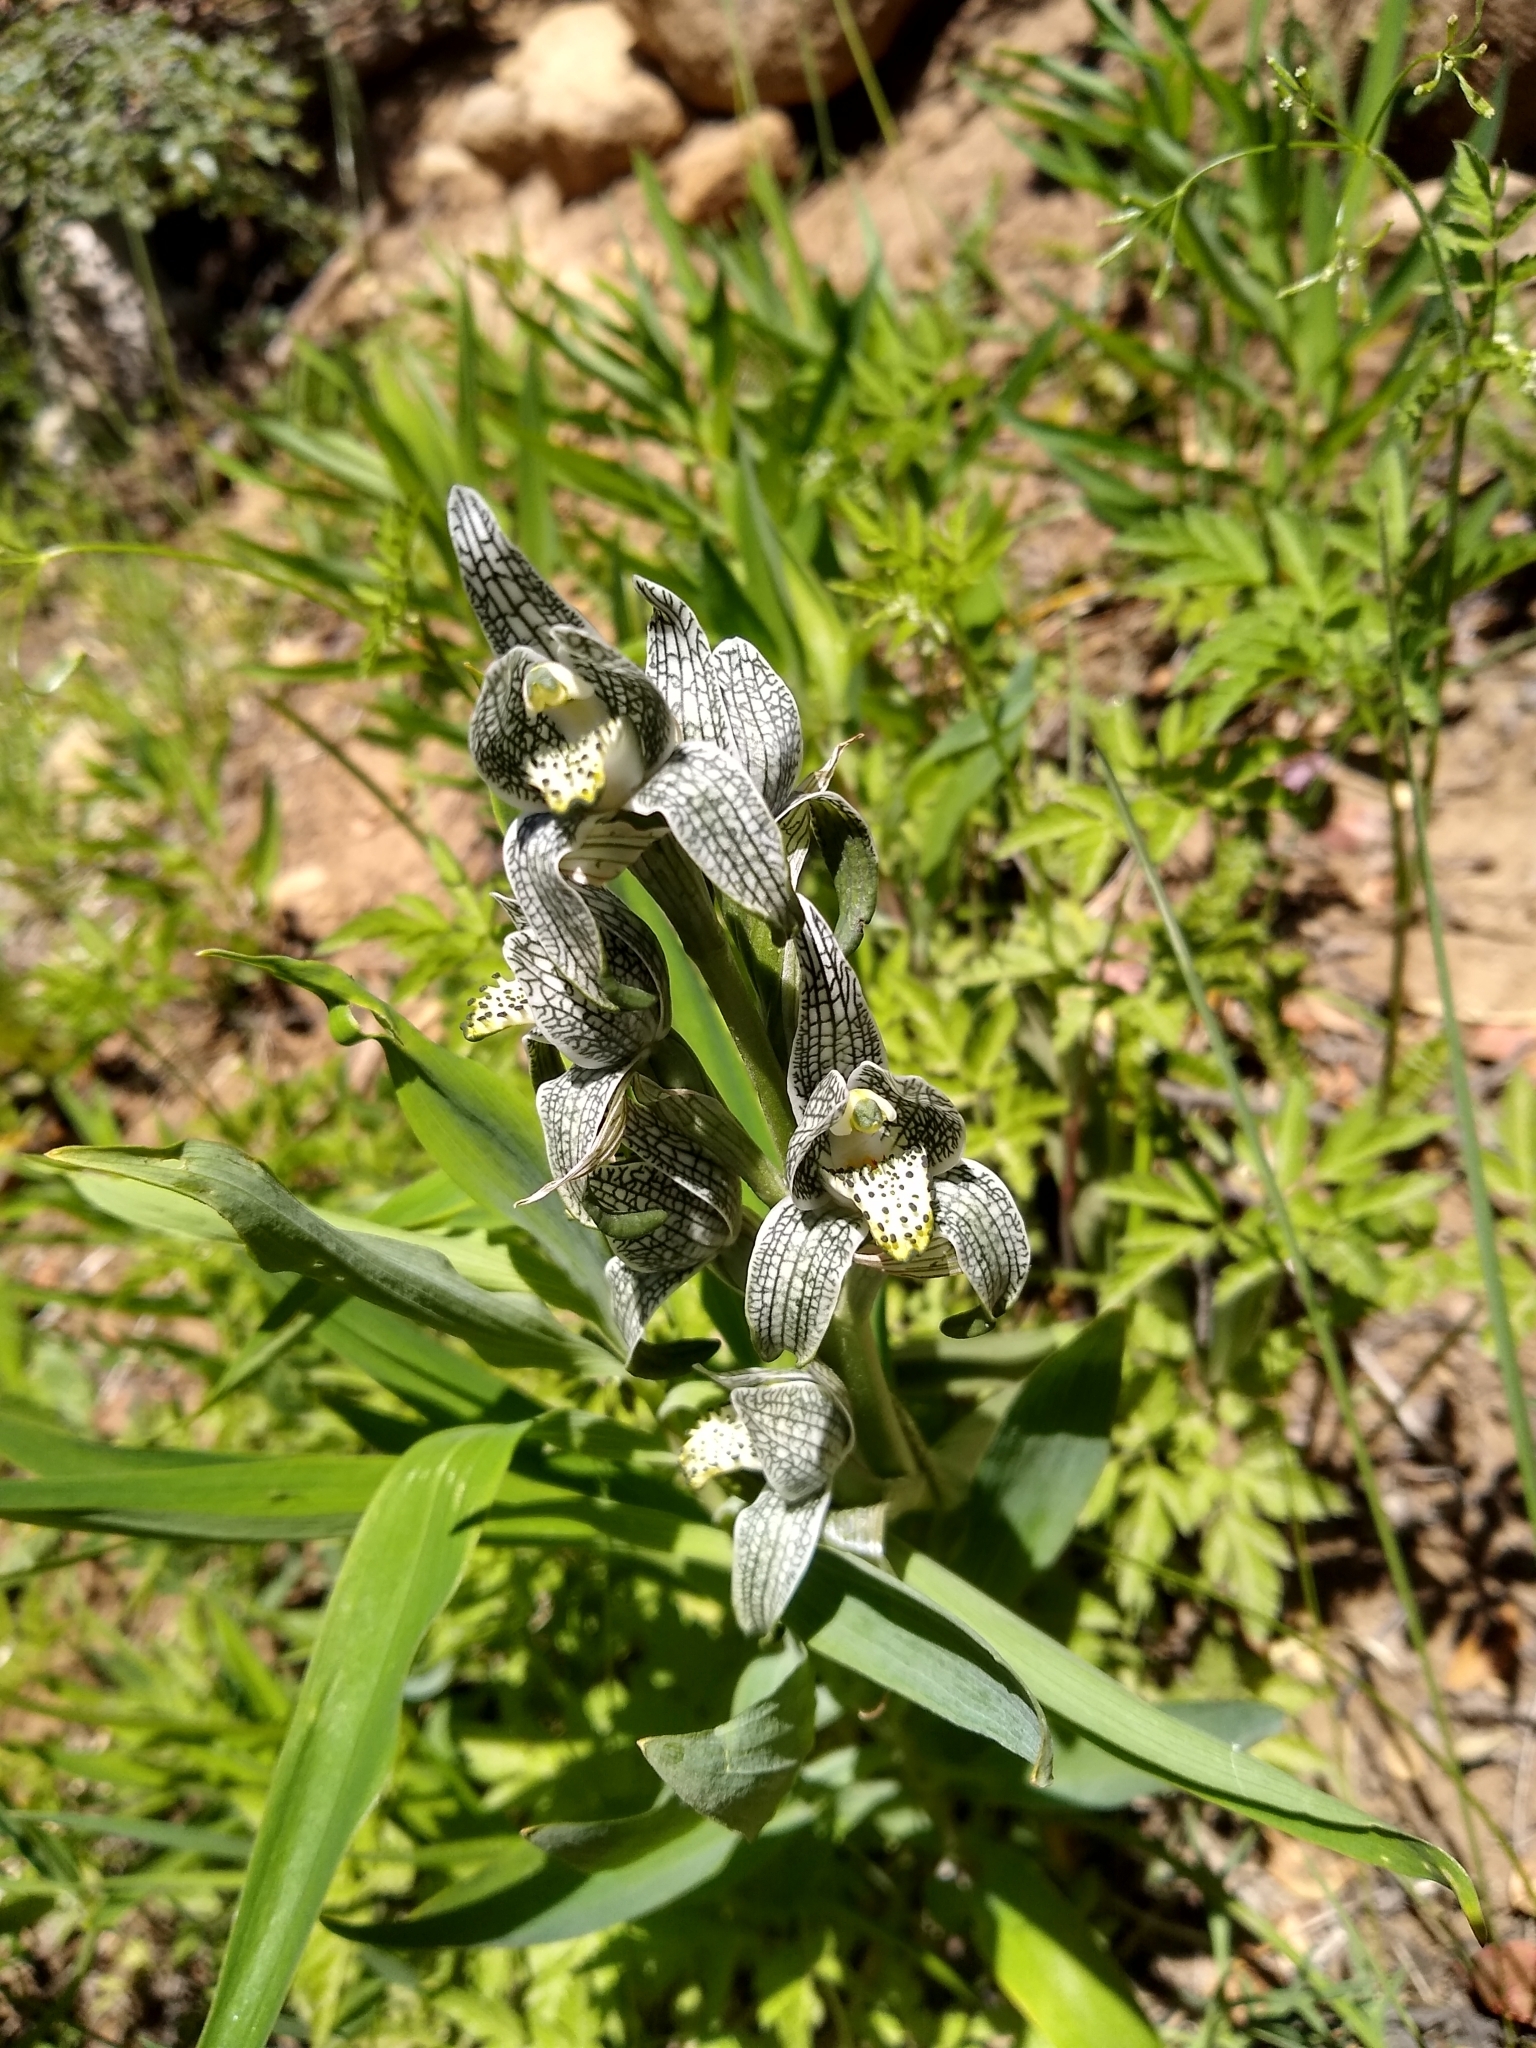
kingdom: Plantae
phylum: Tracheophyta
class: Liliopsida
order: Asparagales
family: Orchidaceae
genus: Chloraea
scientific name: Chloraea magellanica
